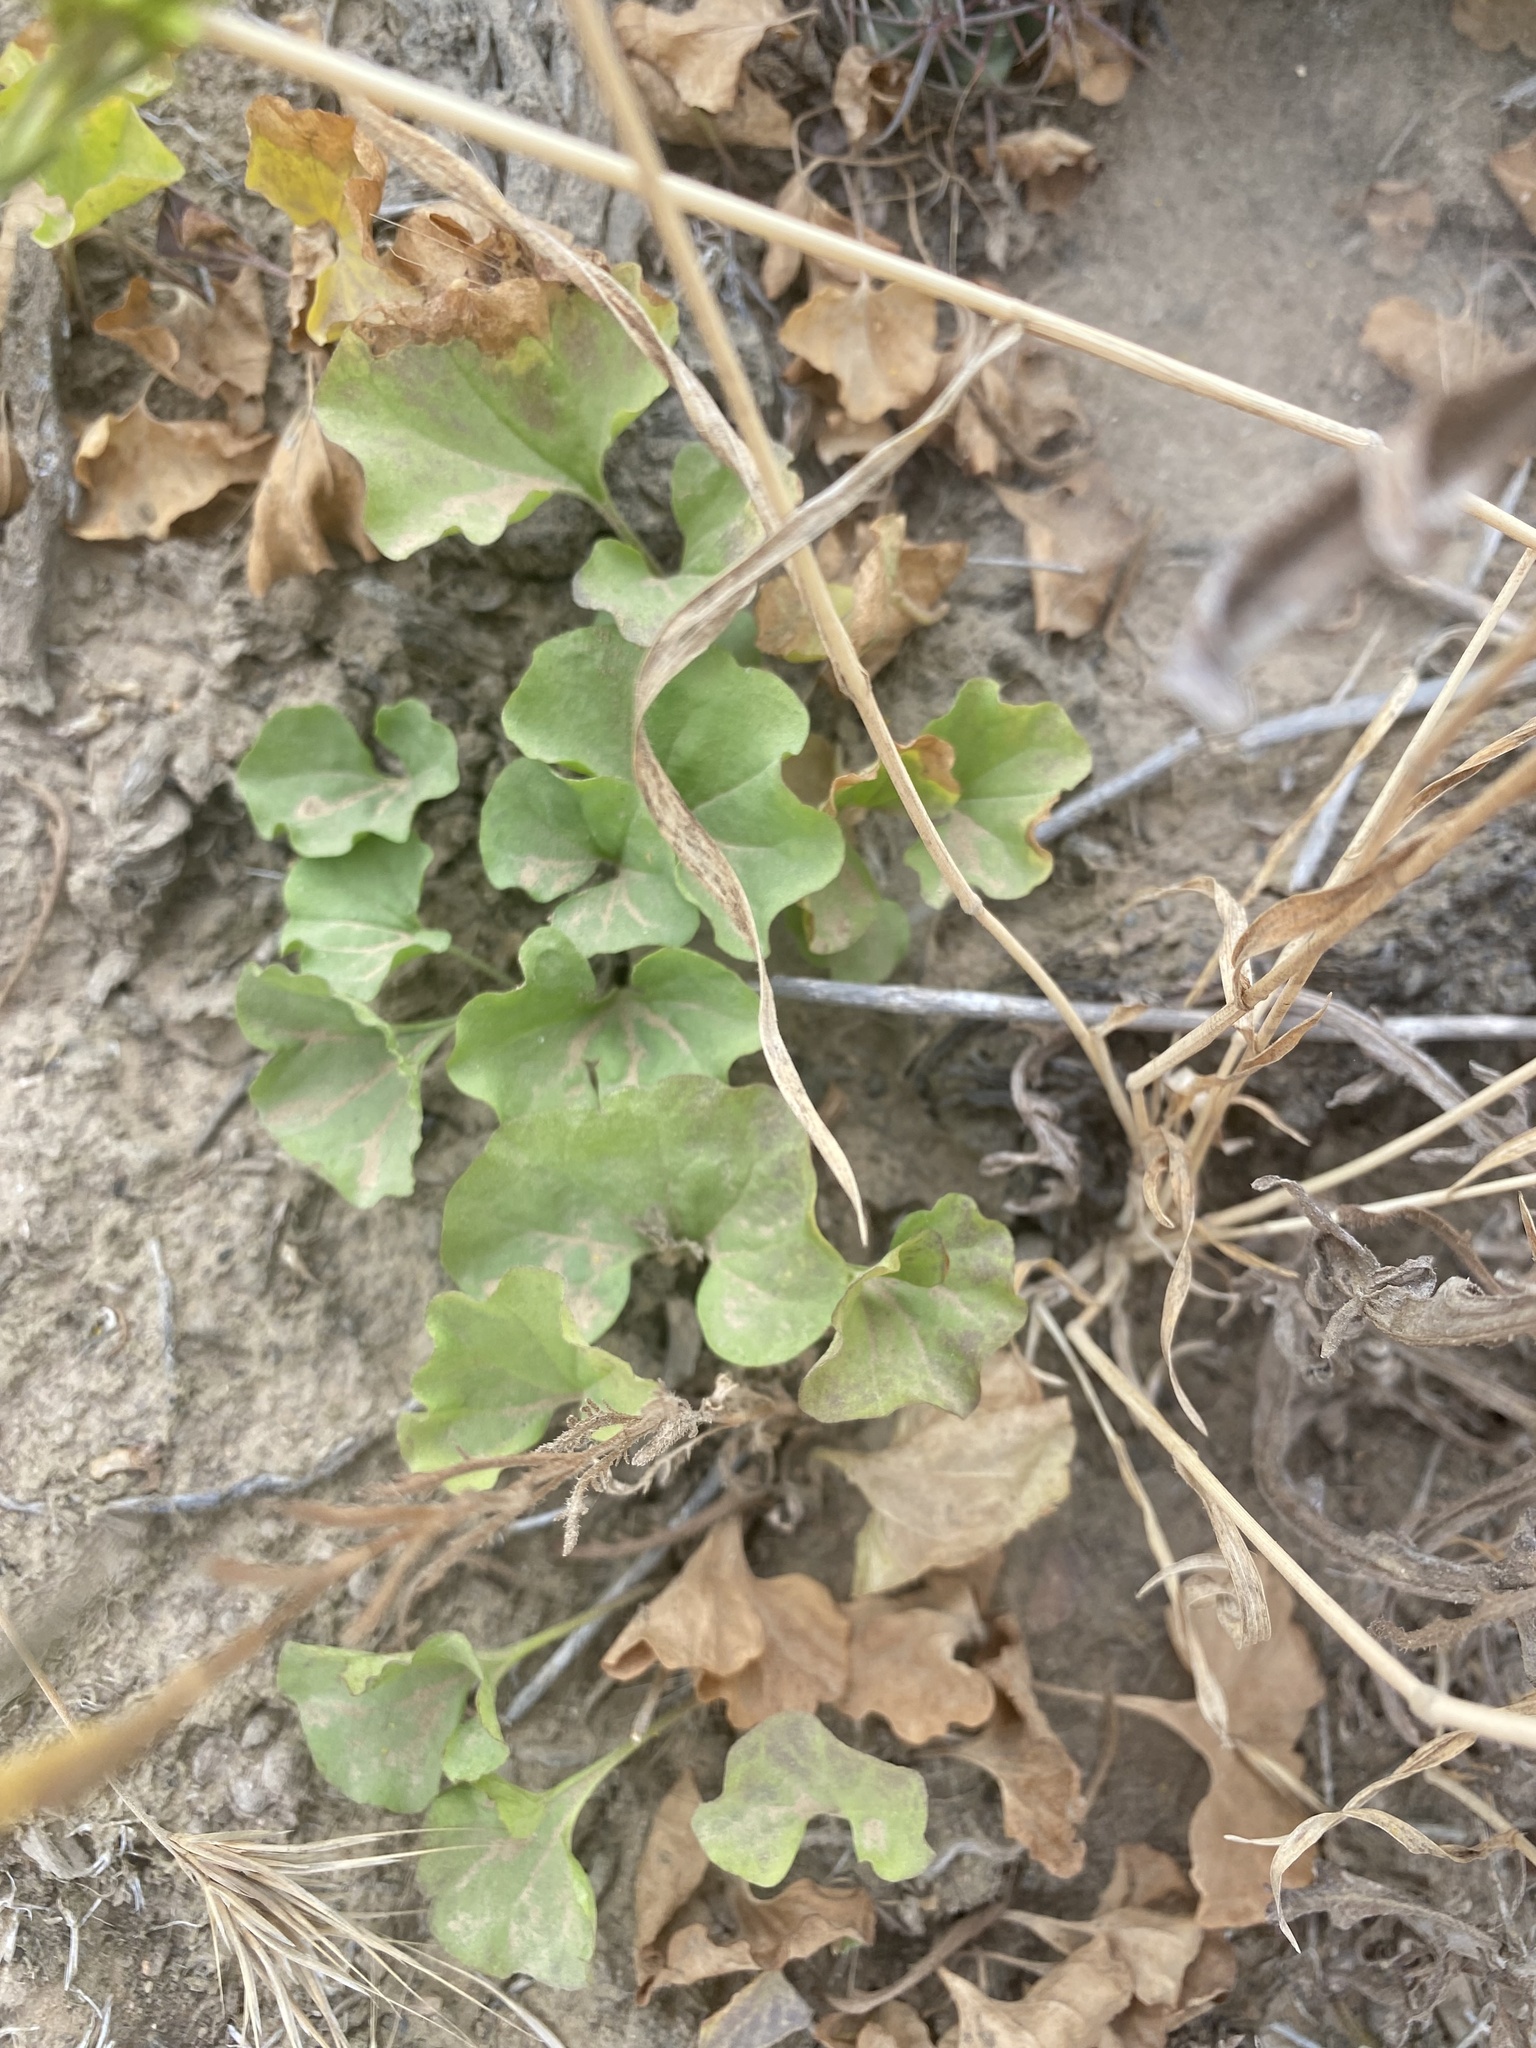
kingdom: Plantae
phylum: Tracheophyta
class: Magnoliopsida
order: Solanales
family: Convolvulaceae
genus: Dichondra
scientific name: Dichondra occidentalis
